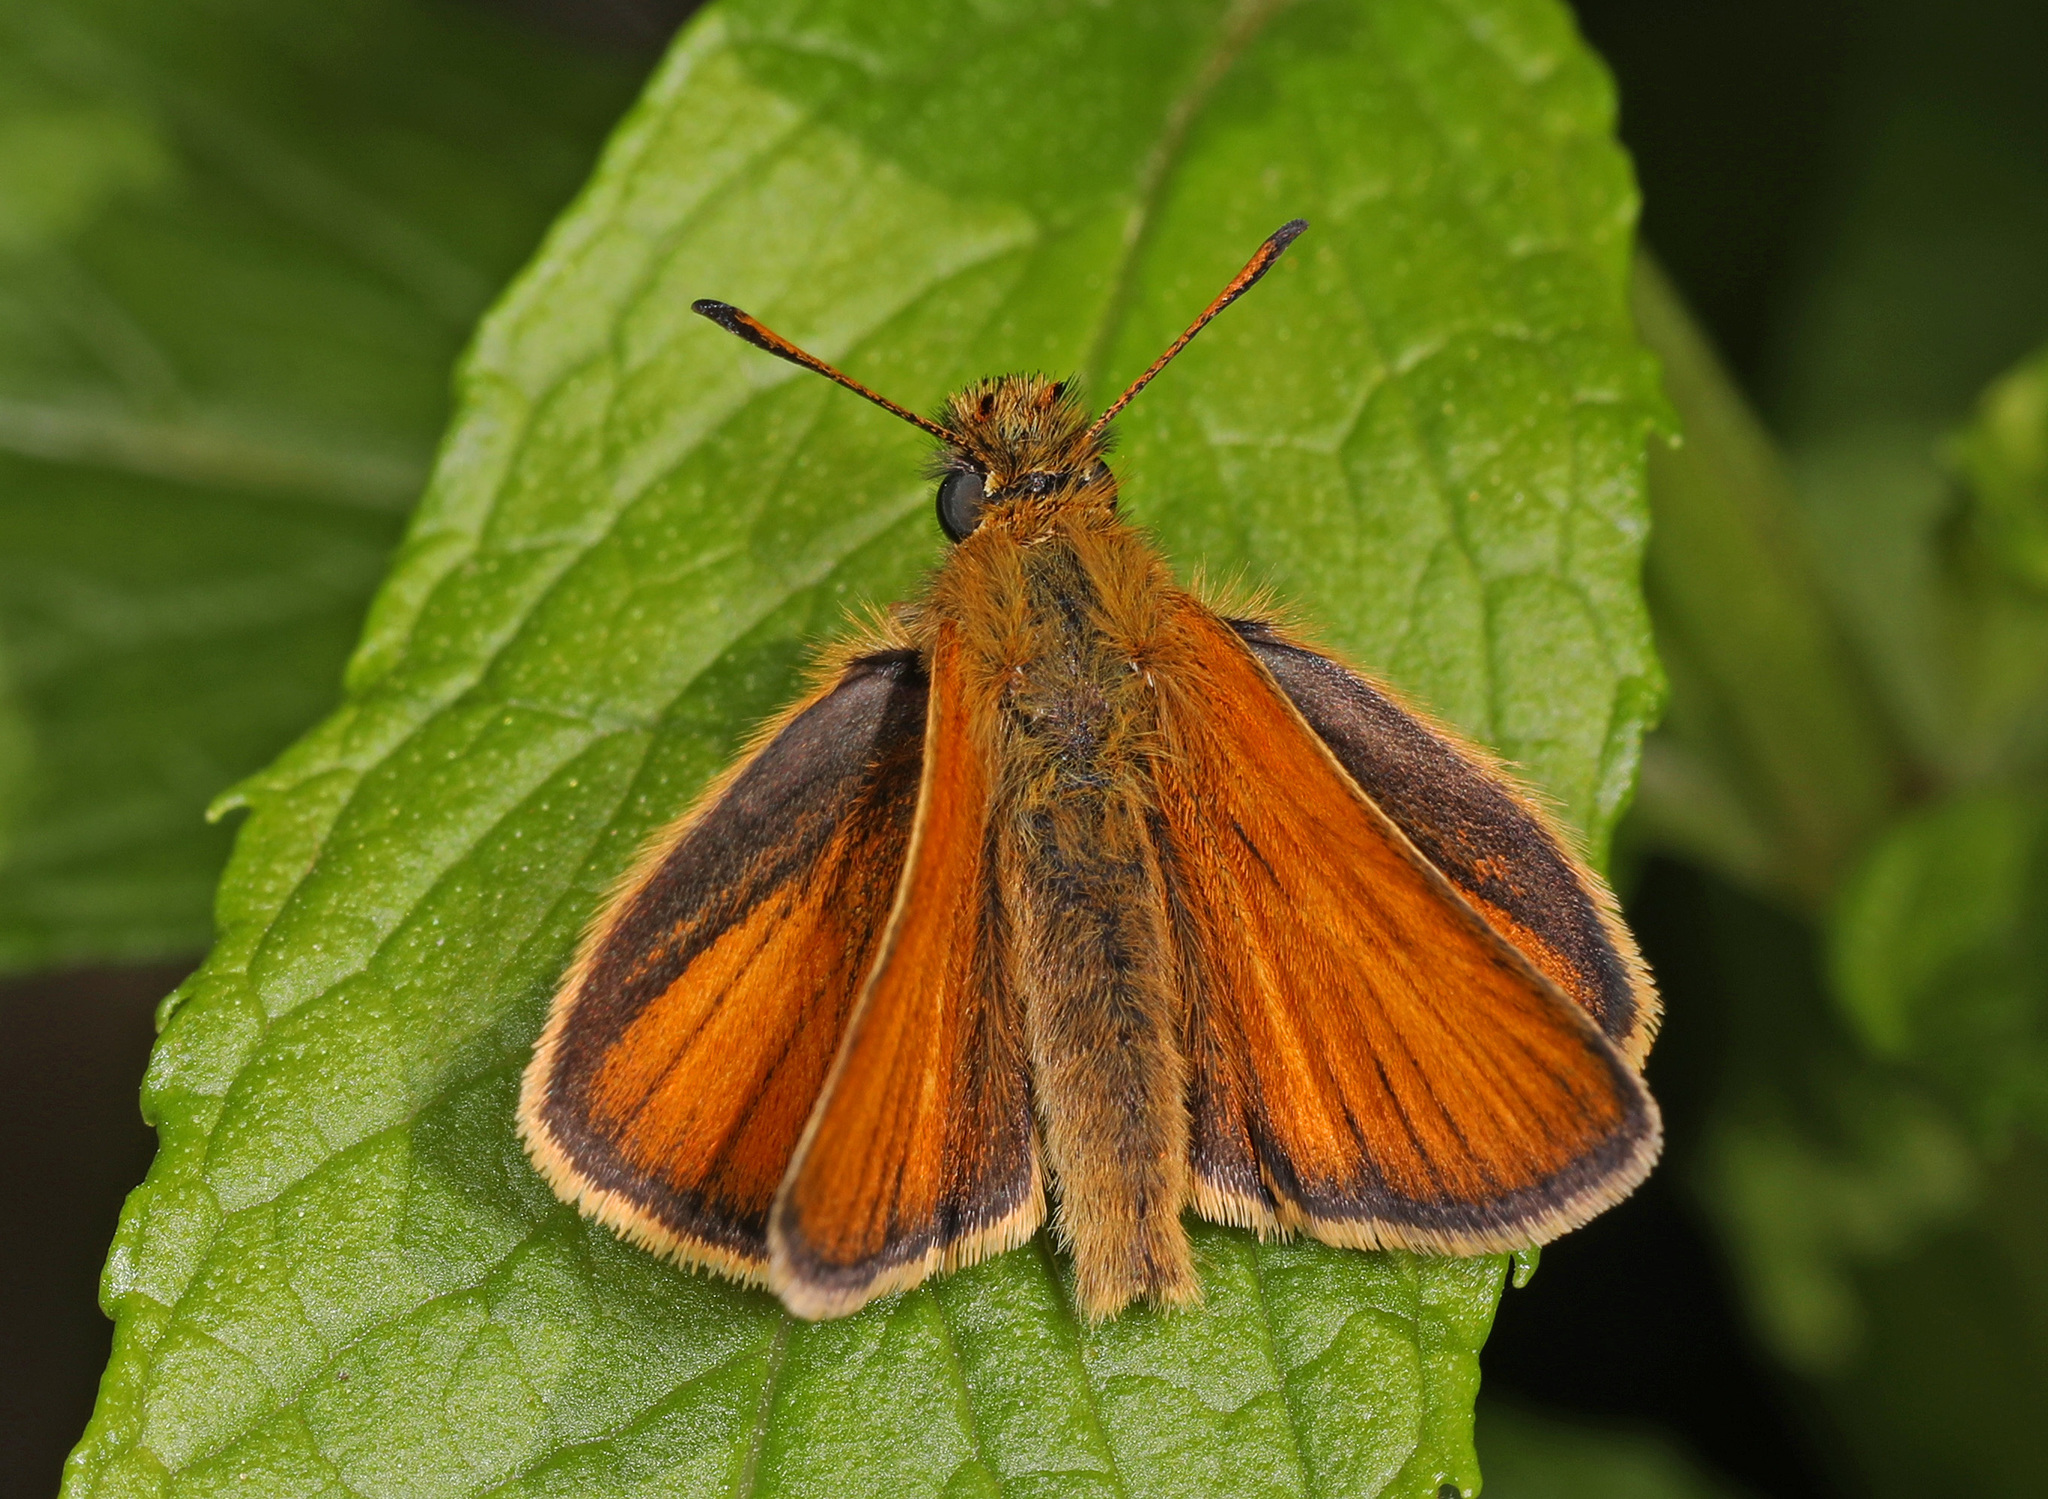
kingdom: Animalia
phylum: Arthropoda
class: Insecta
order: Lepidoptera
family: Hesperiidae
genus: Thymelicus
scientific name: Thymelicus lineola
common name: Essex skipper
